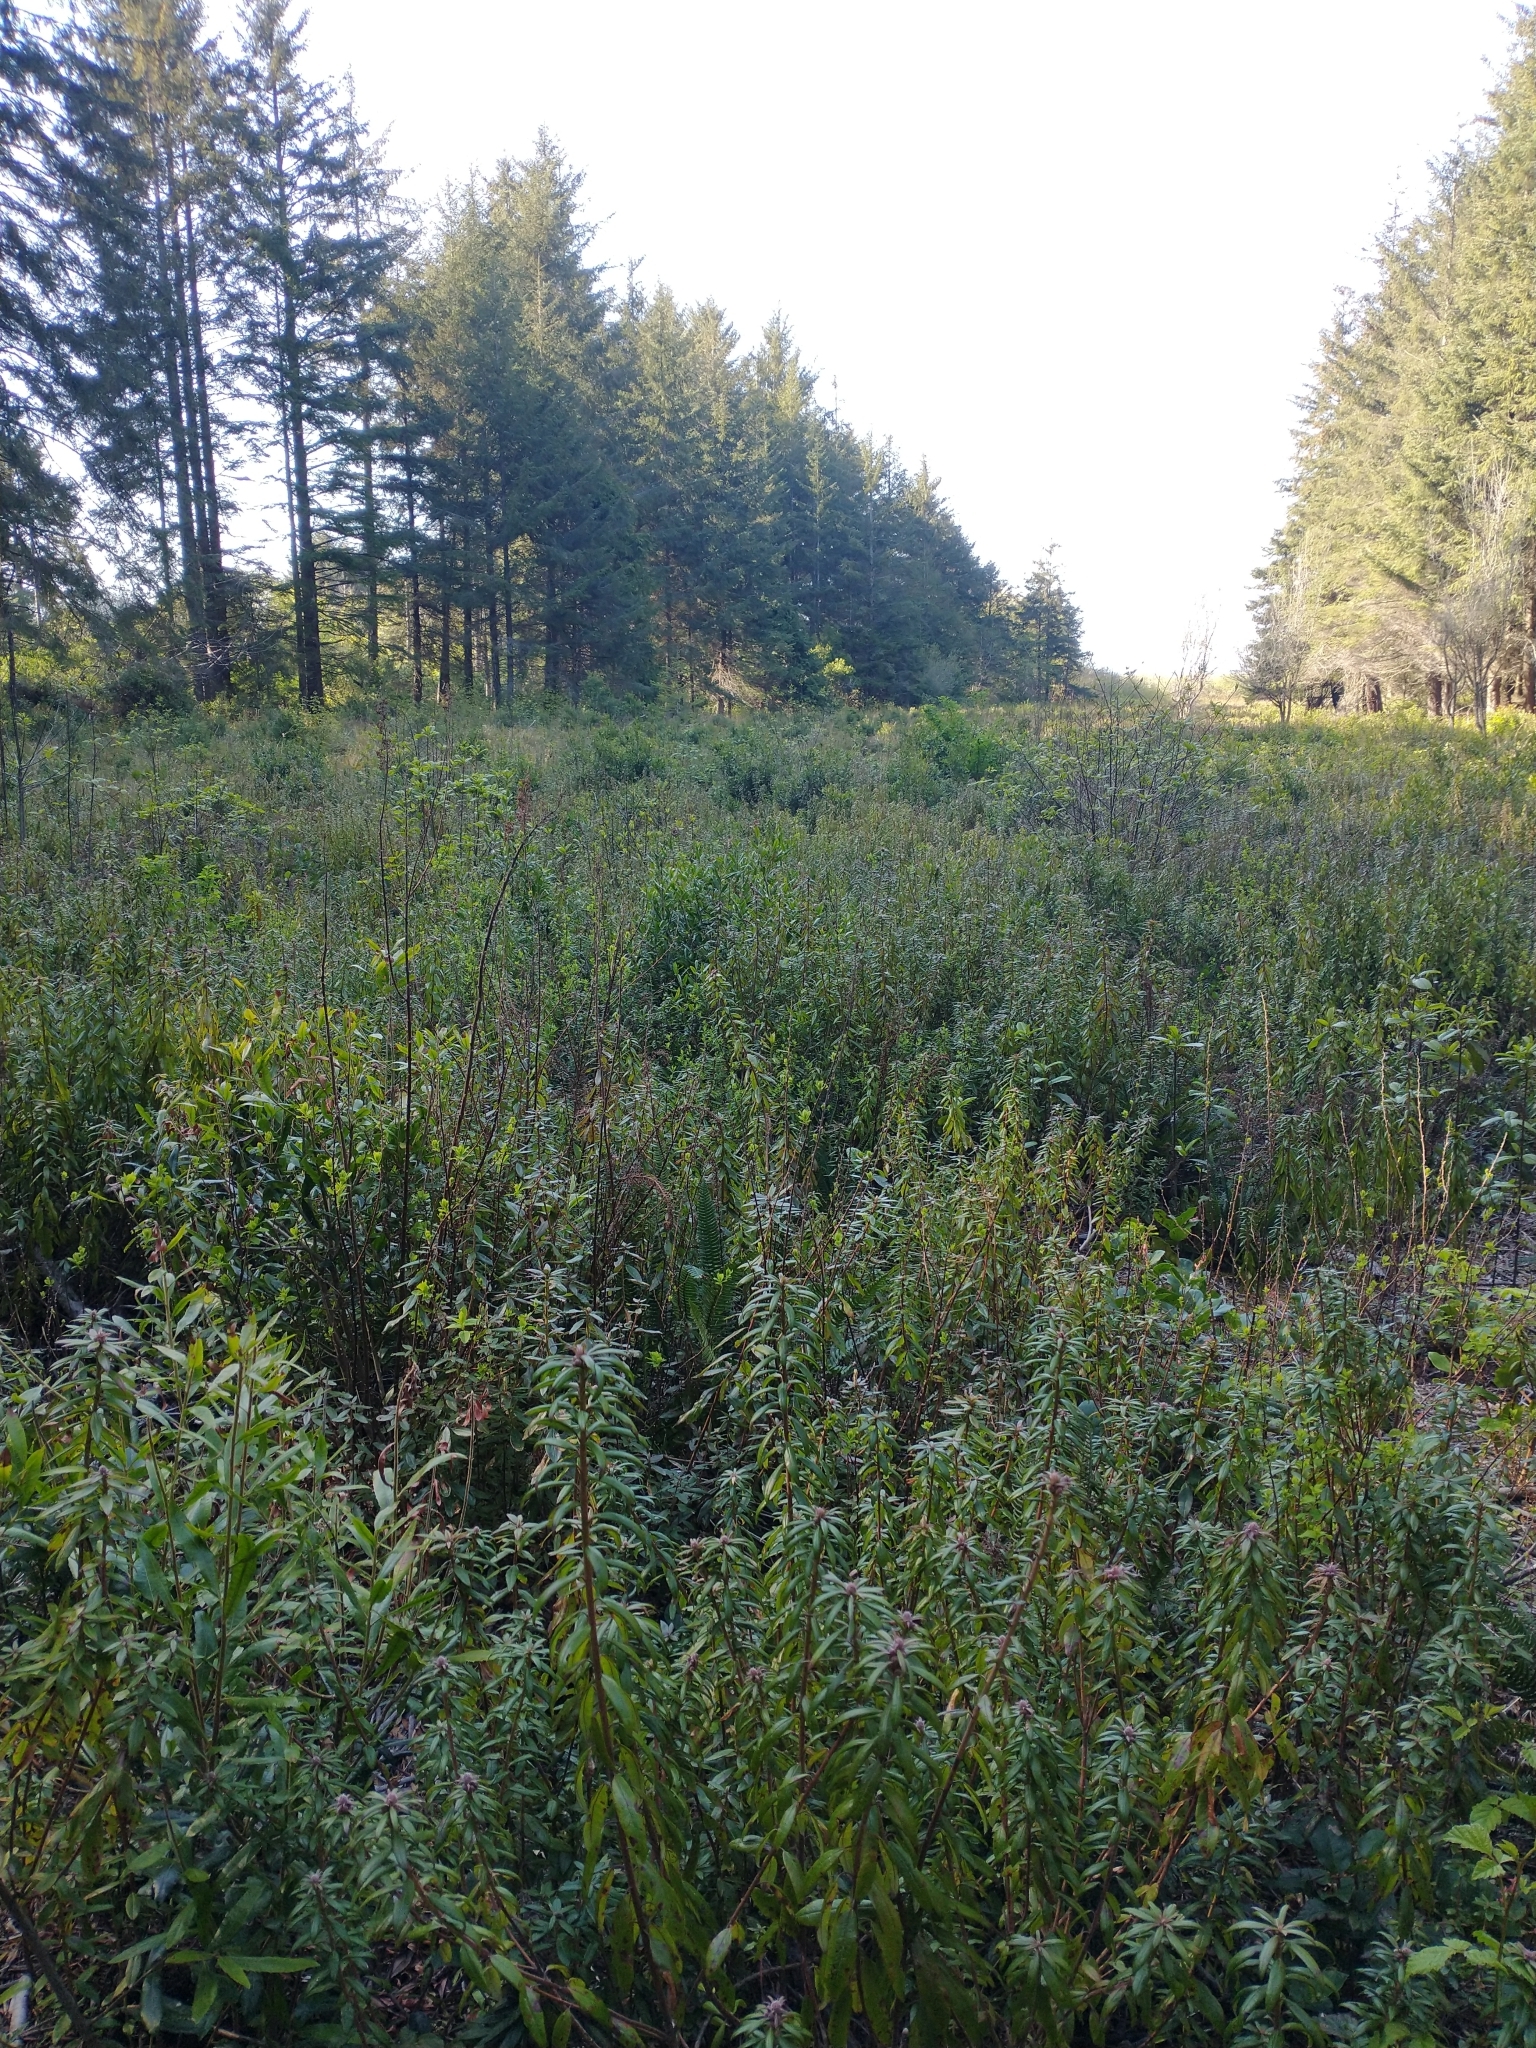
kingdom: Plantae
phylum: Tracheophyta
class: Magnoliopsida
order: Ericales
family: Ericaceae
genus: Rhododendron
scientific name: Rhododendron columbianum
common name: Western labrador tea
